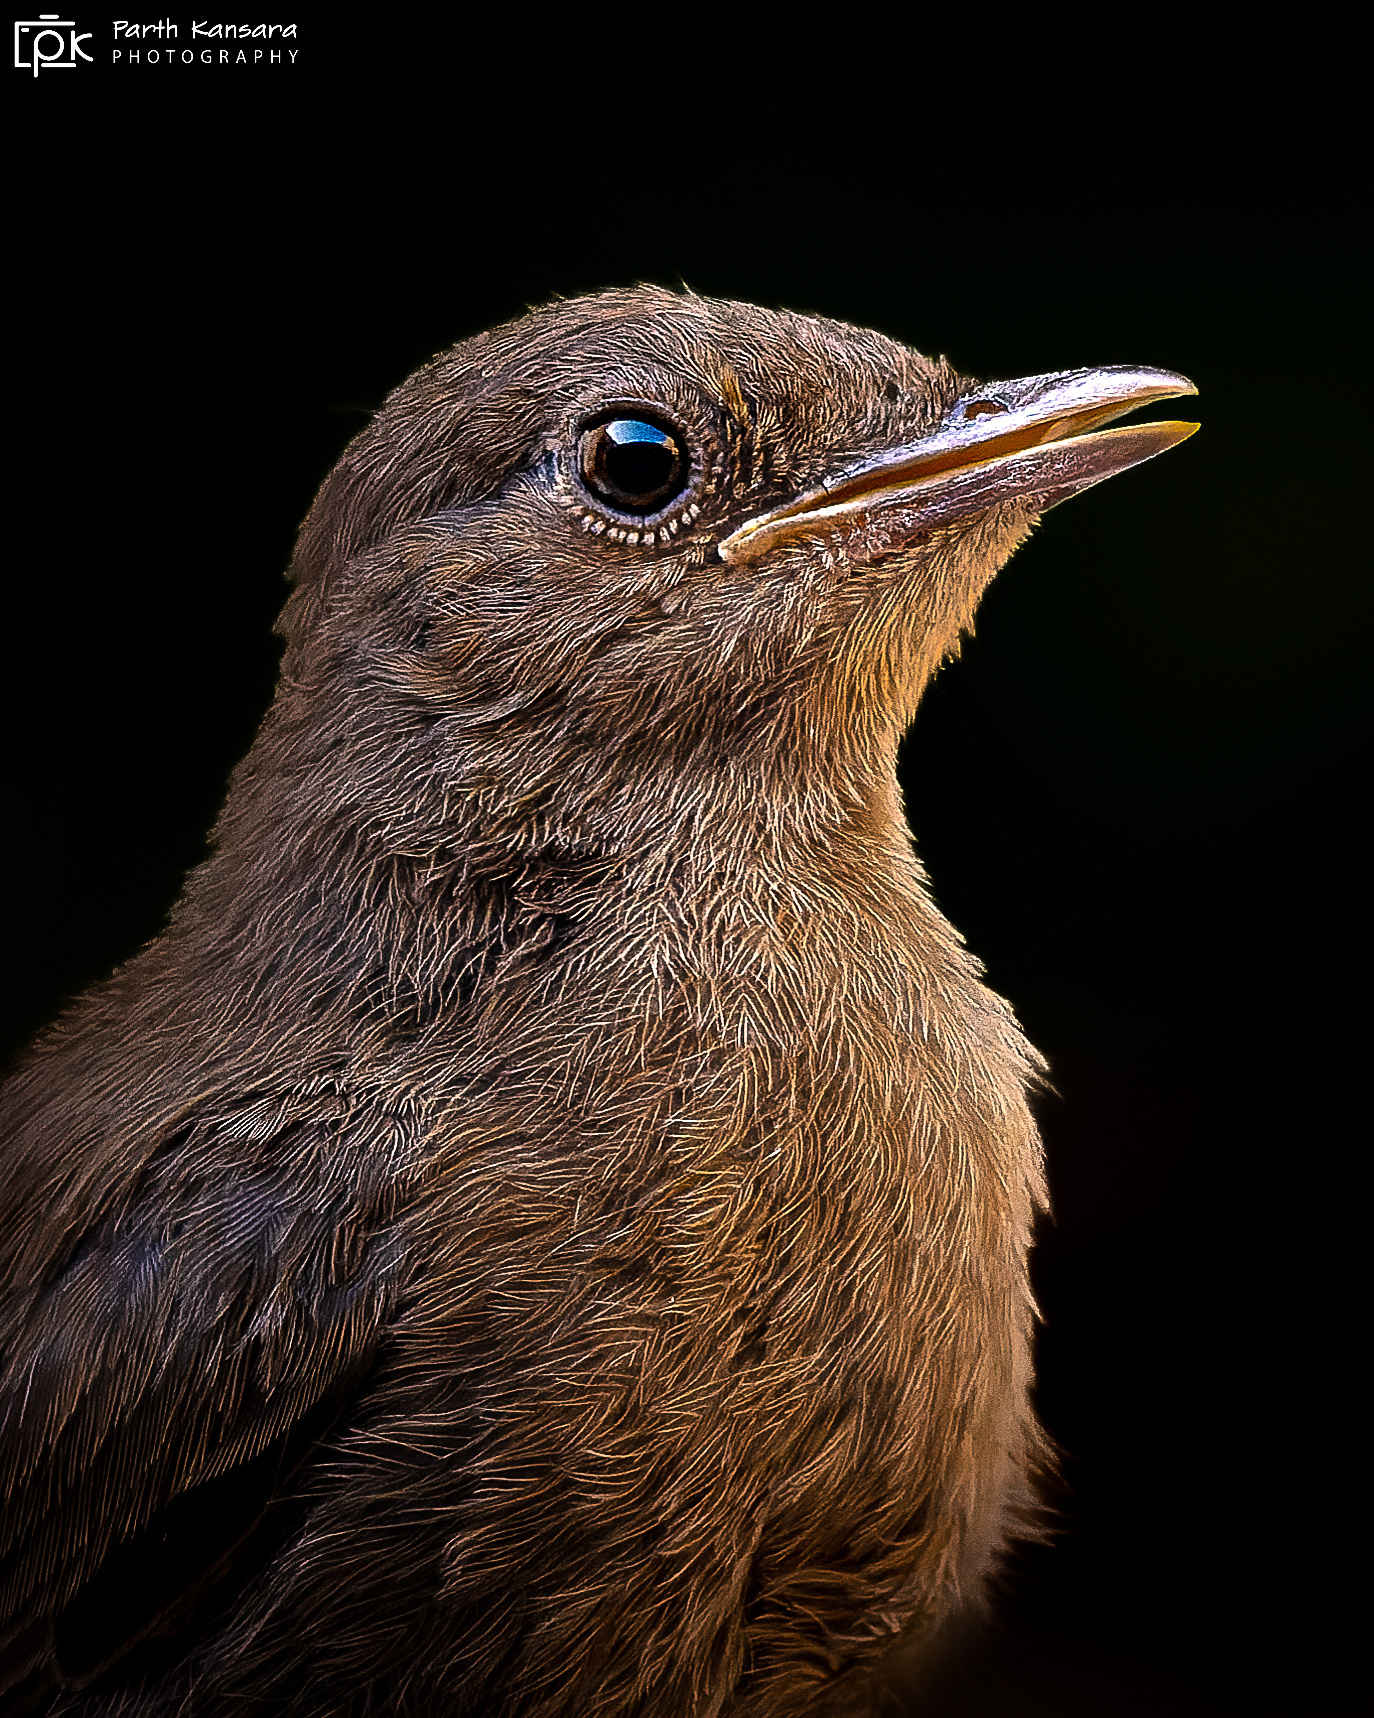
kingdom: Animalia
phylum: Chordata
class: Aves
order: Passeriformes
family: Muscicapidae
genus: Oenanthe
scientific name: Oenanthe fusca
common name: Brown rock chat
